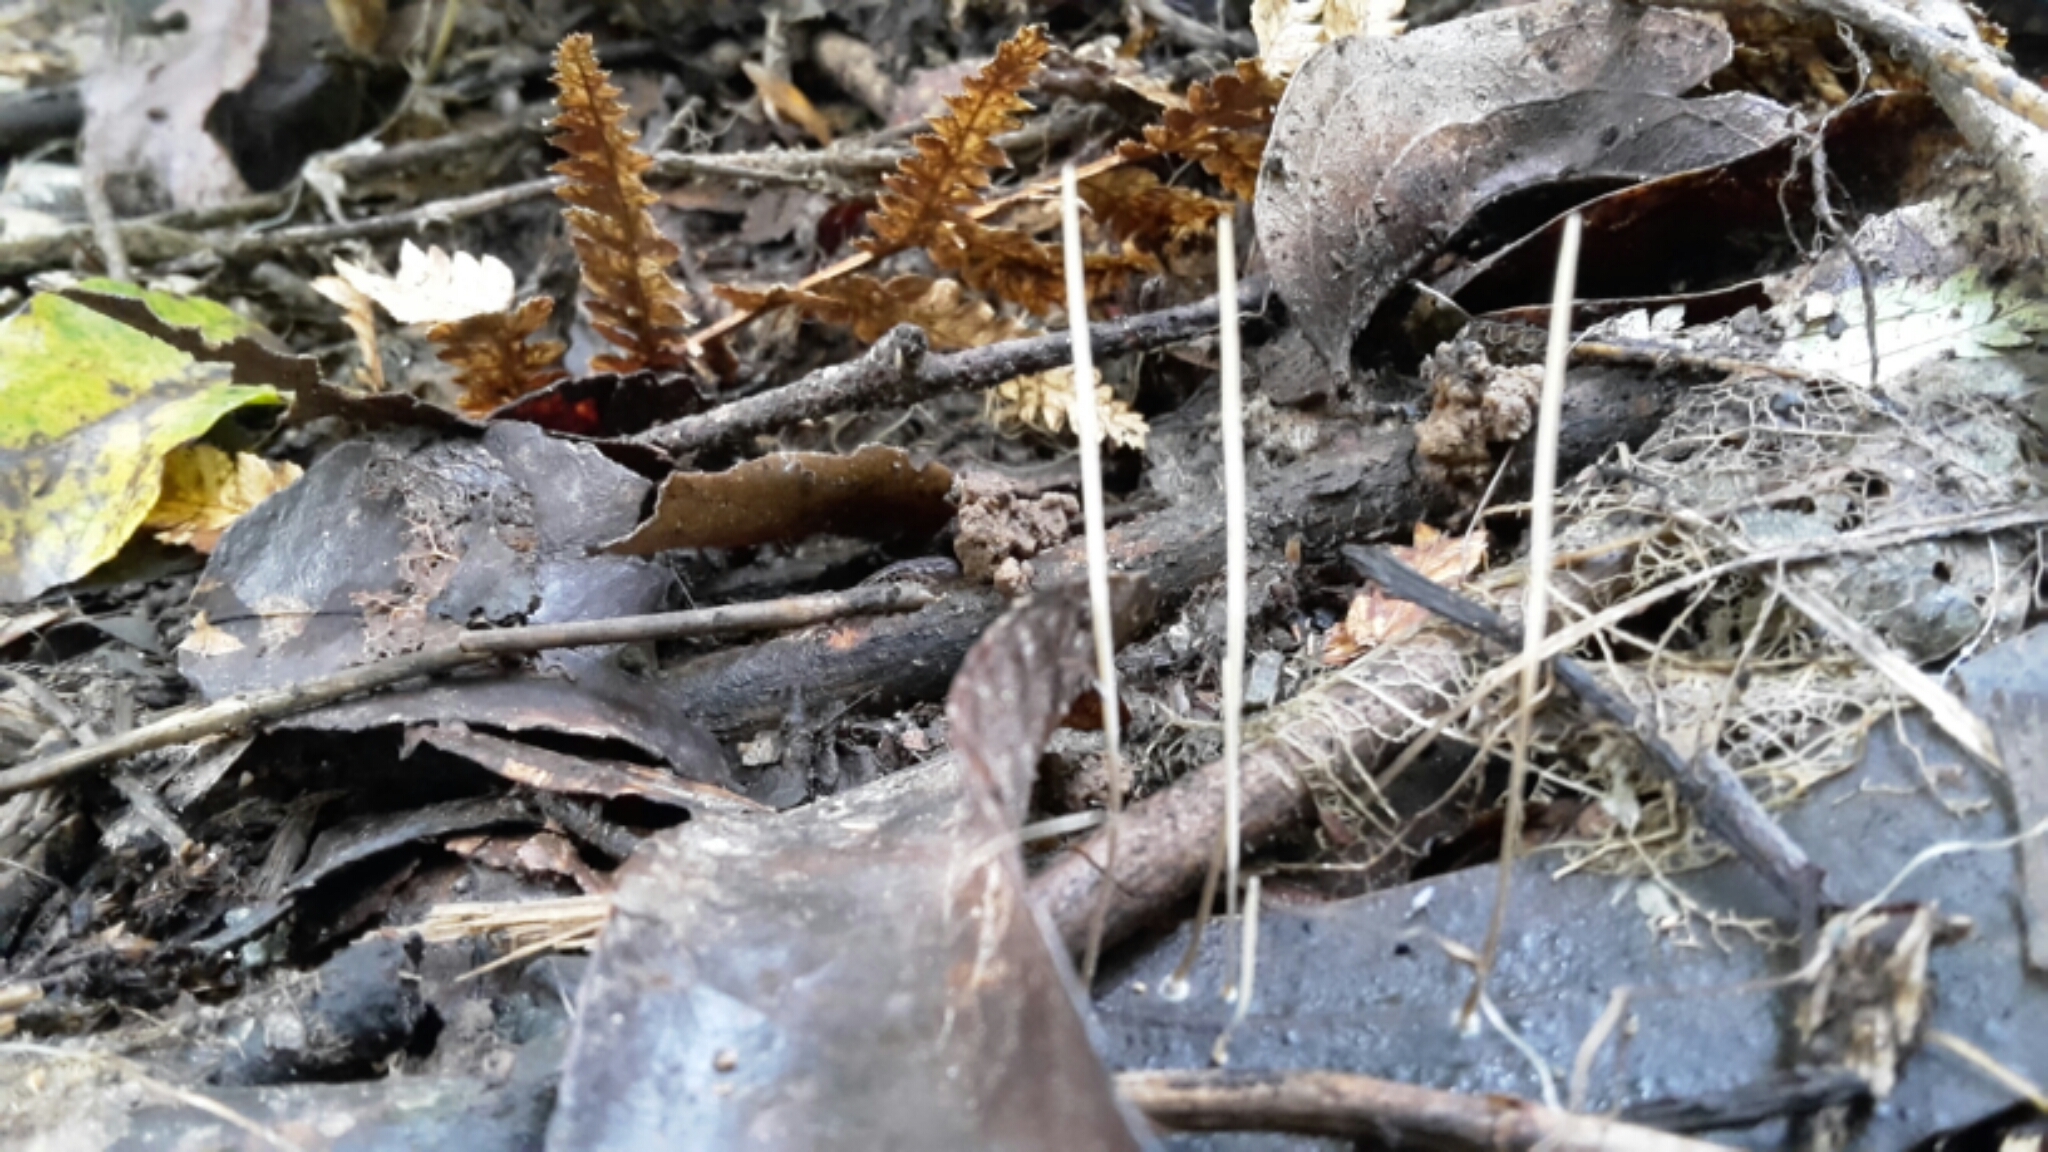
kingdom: Fungi
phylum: Basidiomycota
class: Agaricomycetes
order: Agaricales
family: Typhulaceae
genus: Macrotyphula
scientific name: Macrotyphula defibulata
